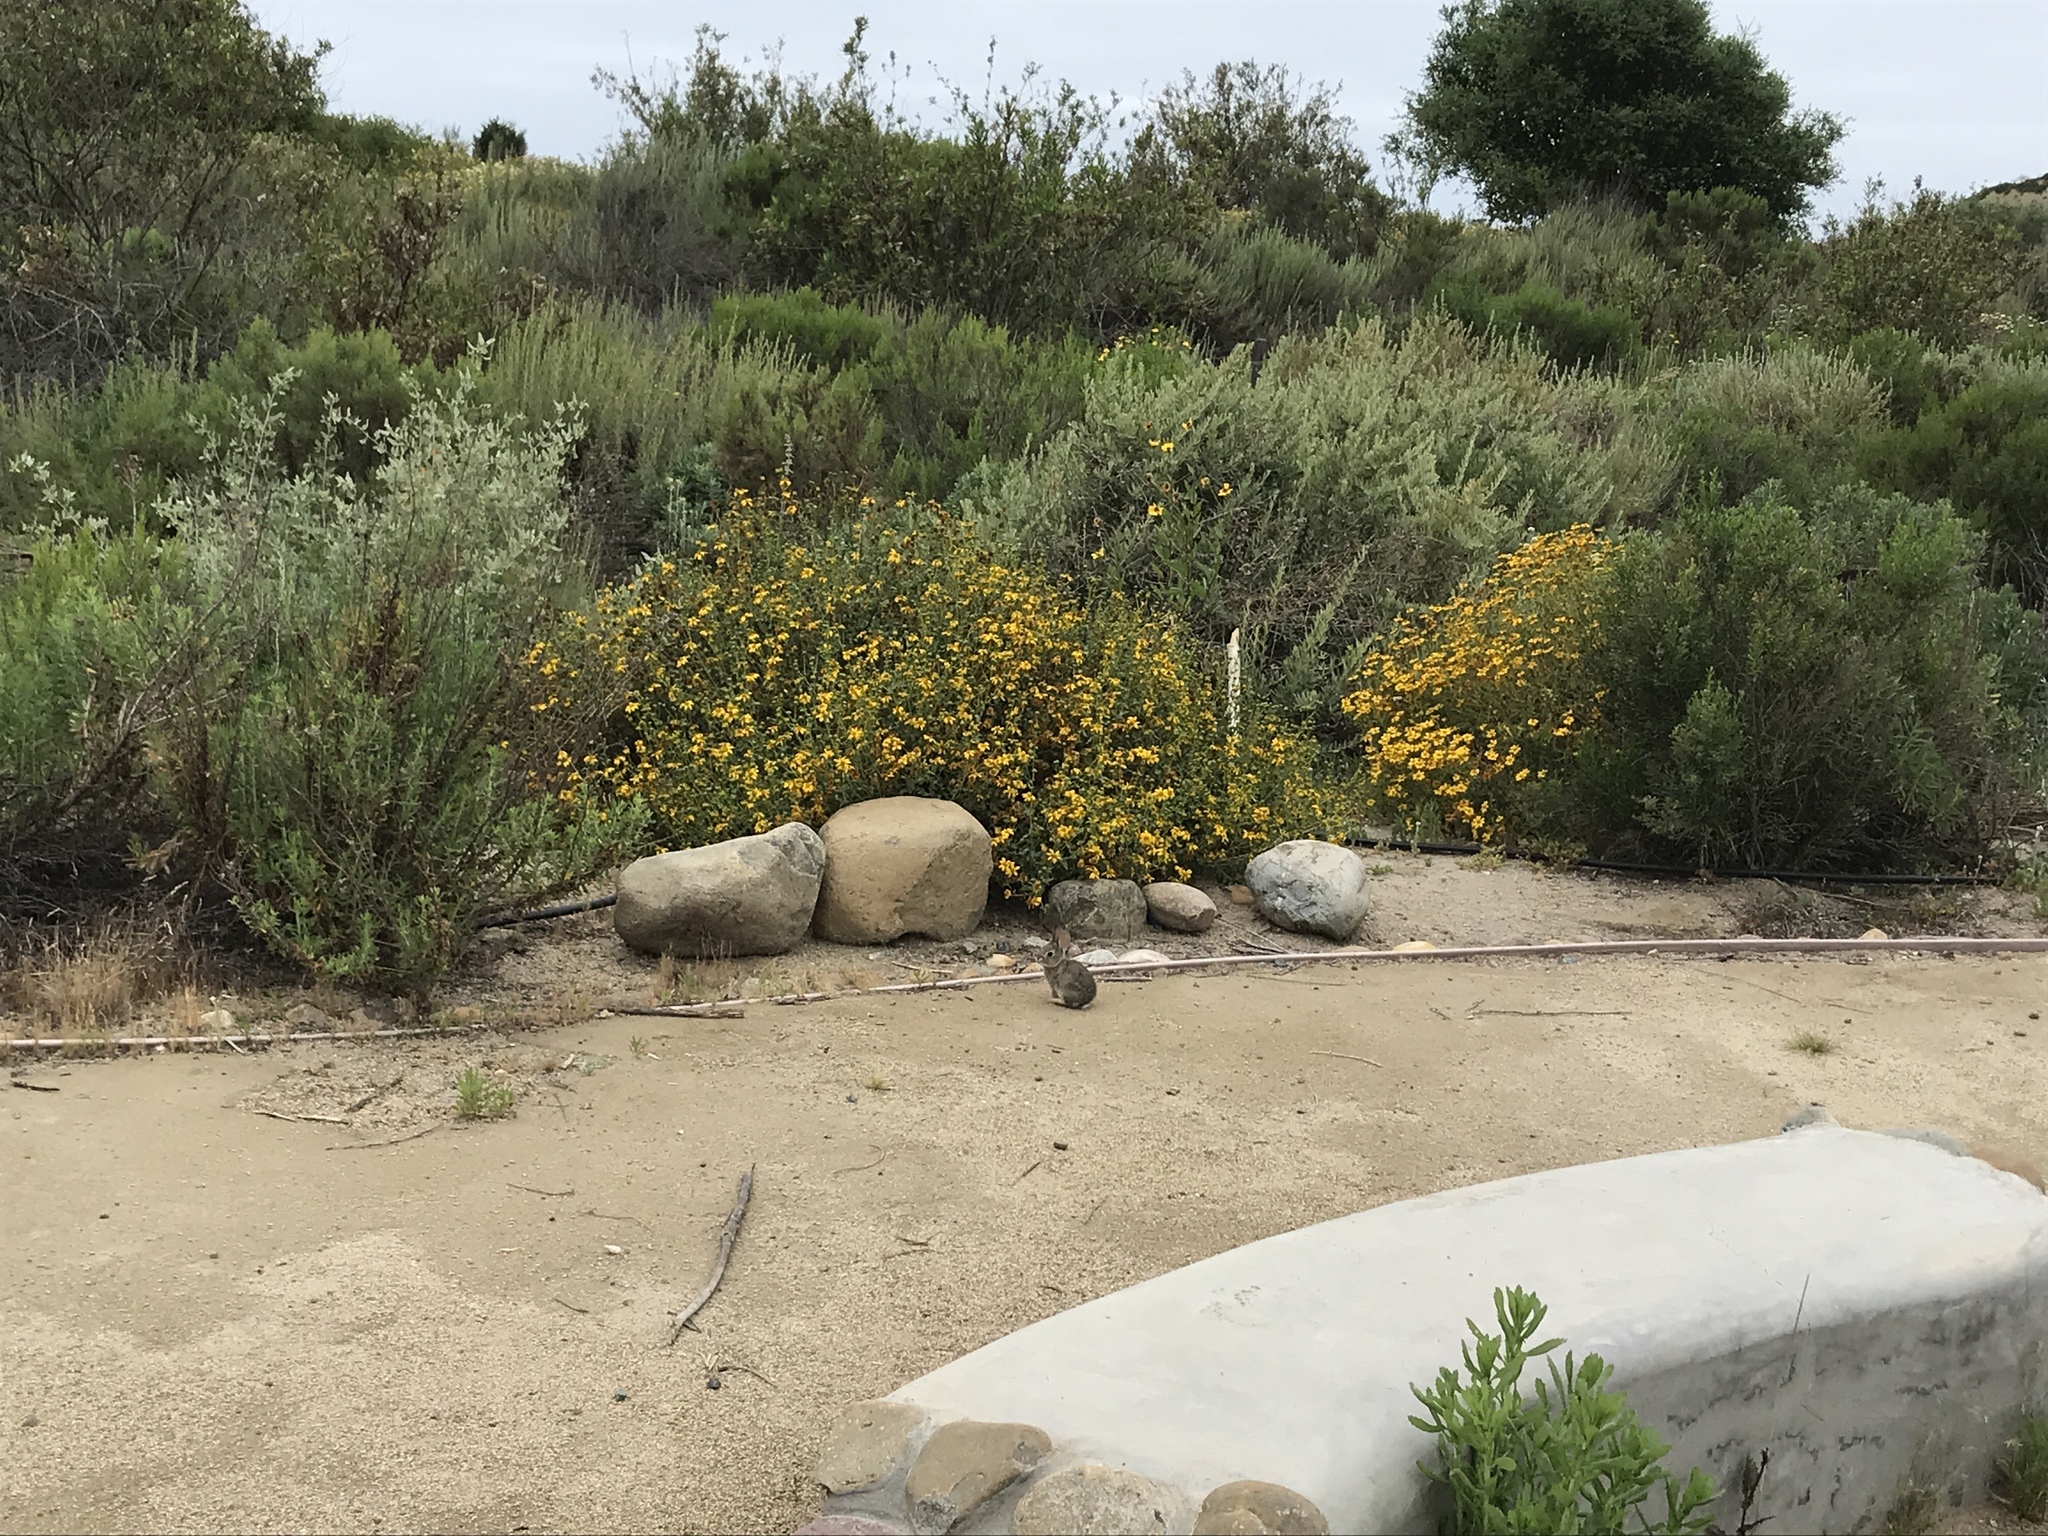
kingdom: Animalia
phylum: Chordata
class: Mammalia
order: Lagomorpha
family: Leporidae
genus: Sylvilagus
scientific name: Sylvilagus audubonii
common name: Desert cottontail
